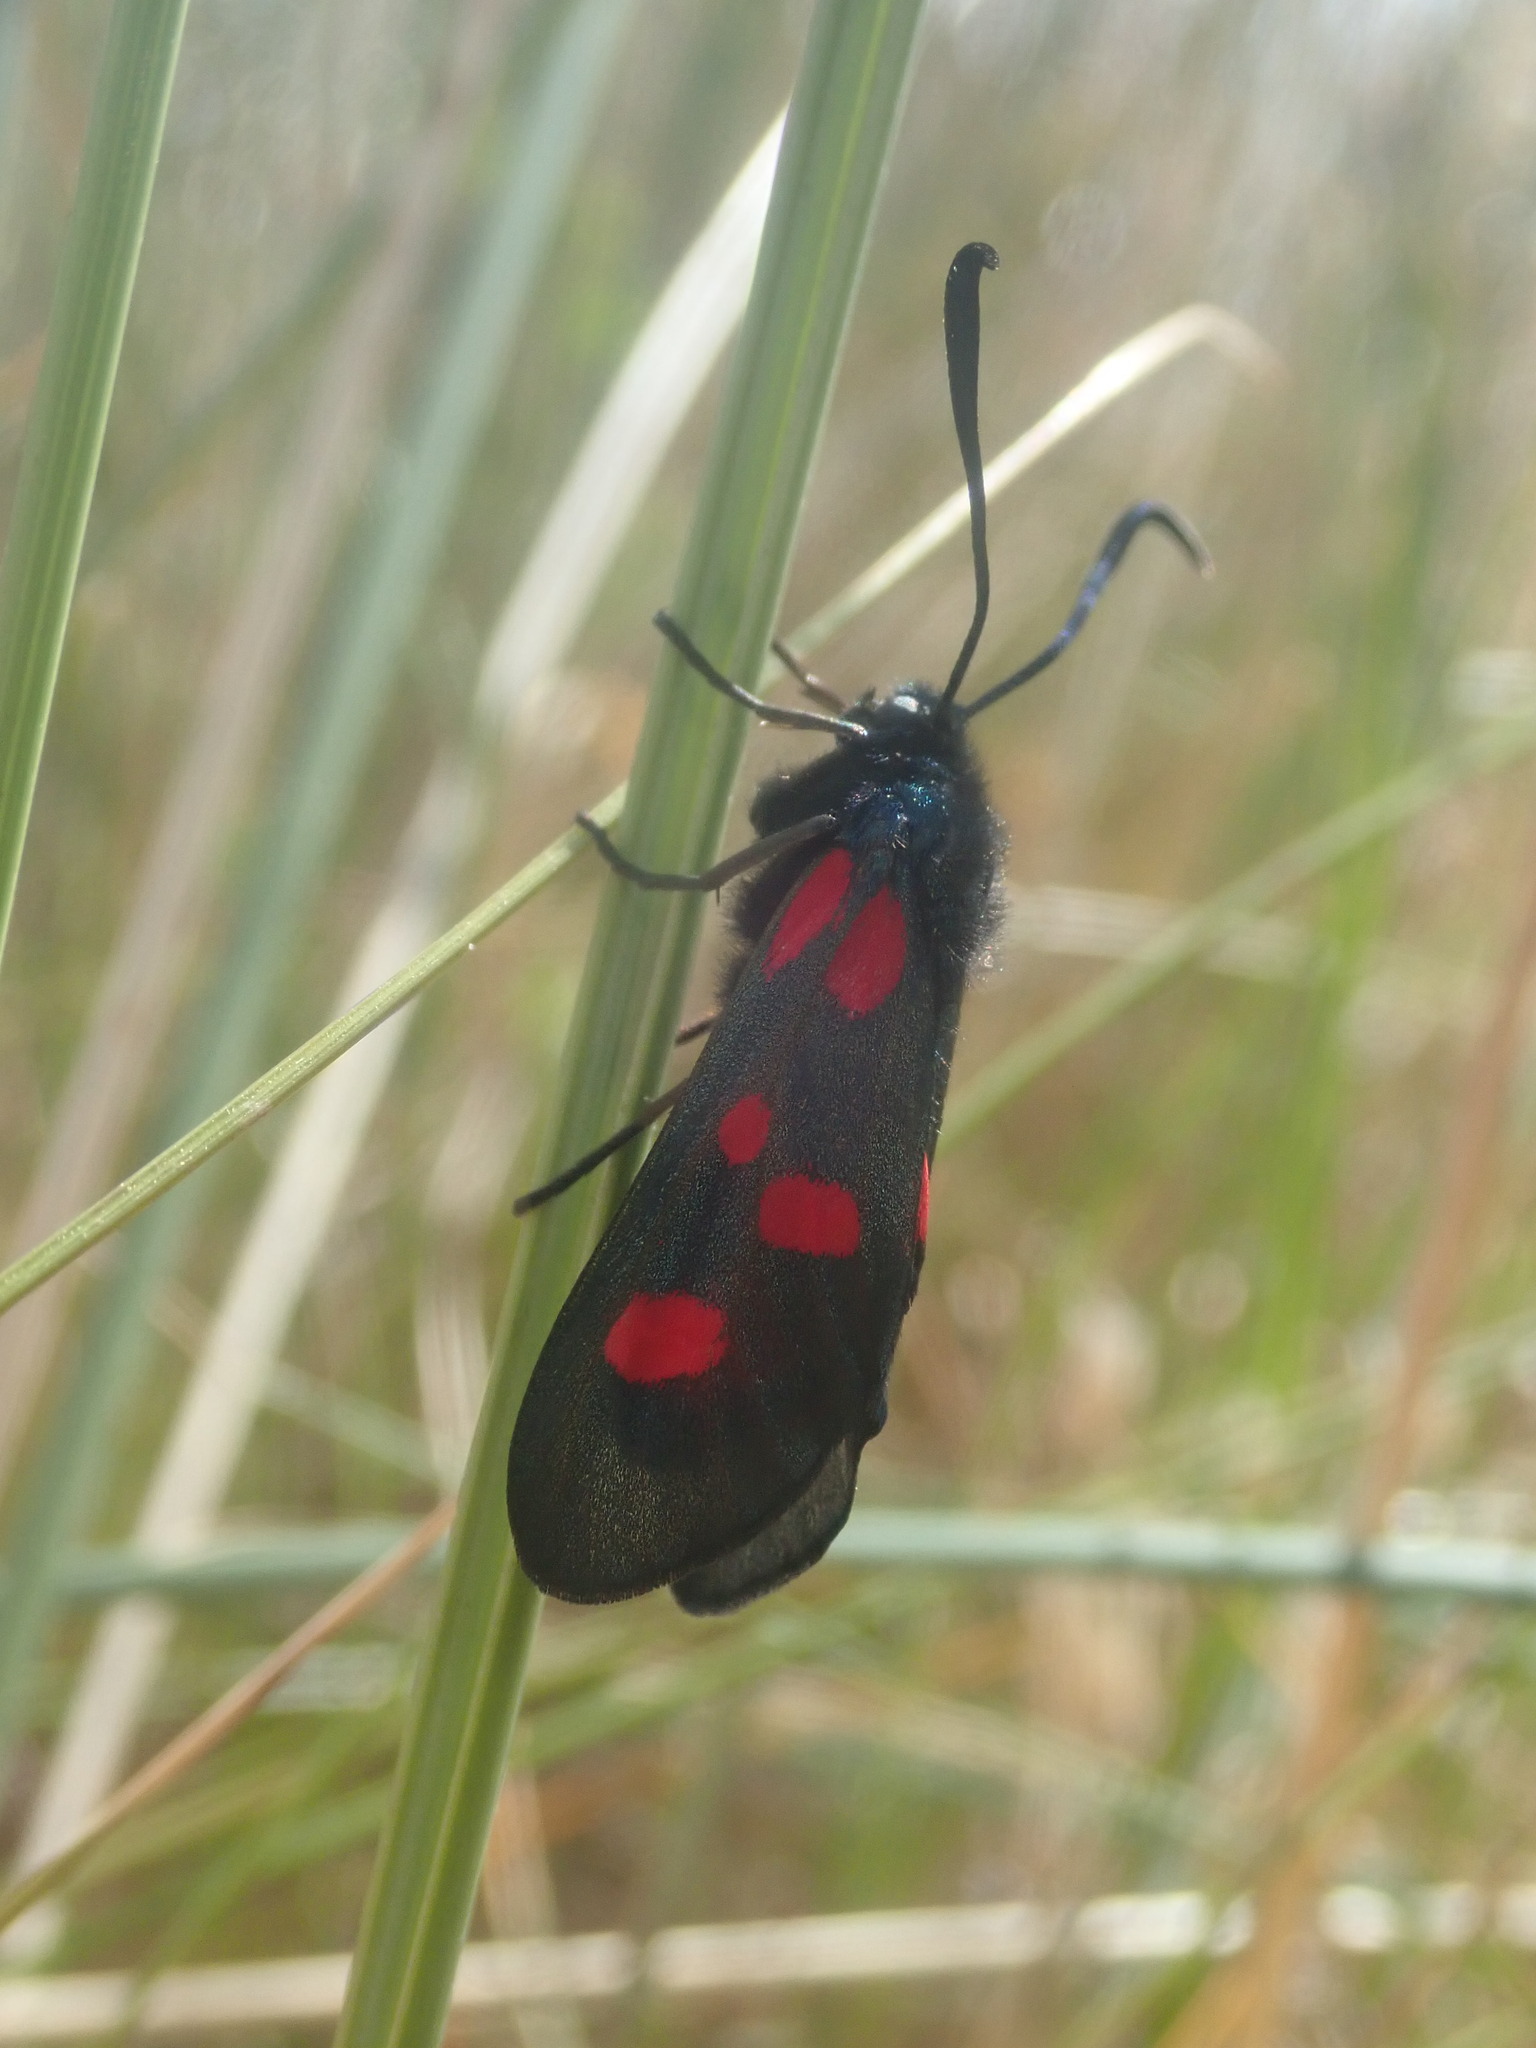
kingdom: Animalia
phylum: Arthropoda
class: Insecta
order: Lepidoptera
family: Zygaenidae
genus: Zygaena
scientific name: Zygaena lonicerae
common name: Narrow-bordered five-spot burnet
